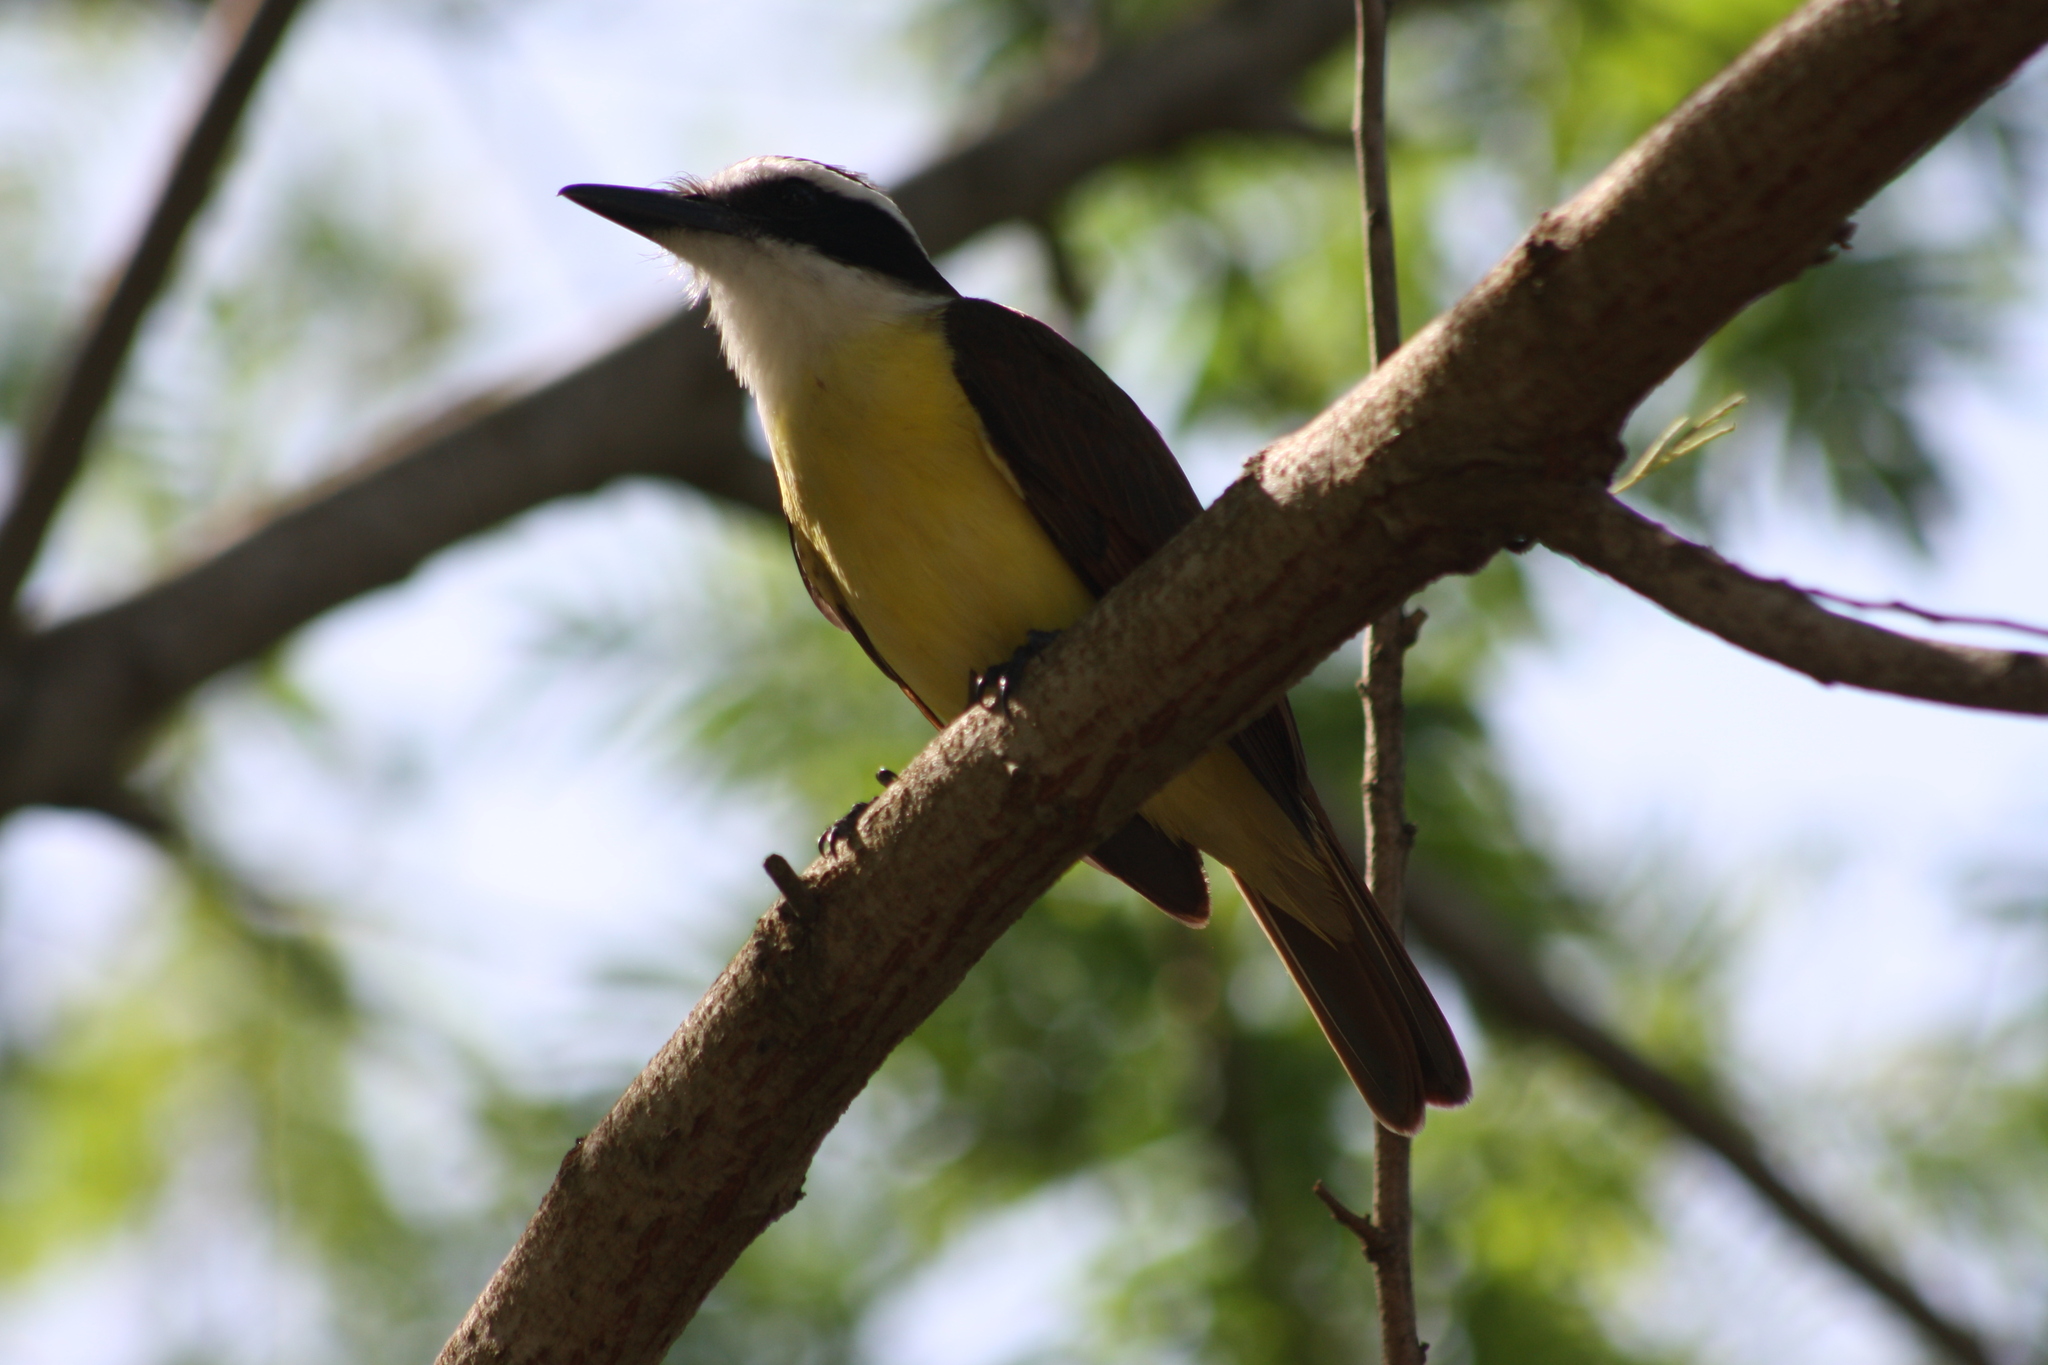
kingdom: Animalia
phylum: Chordata
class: Aves
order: Passeriformes
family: Tyrannidae
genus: Pitangus
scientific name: Pitangus sulphuratus
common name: Great kiskadee
